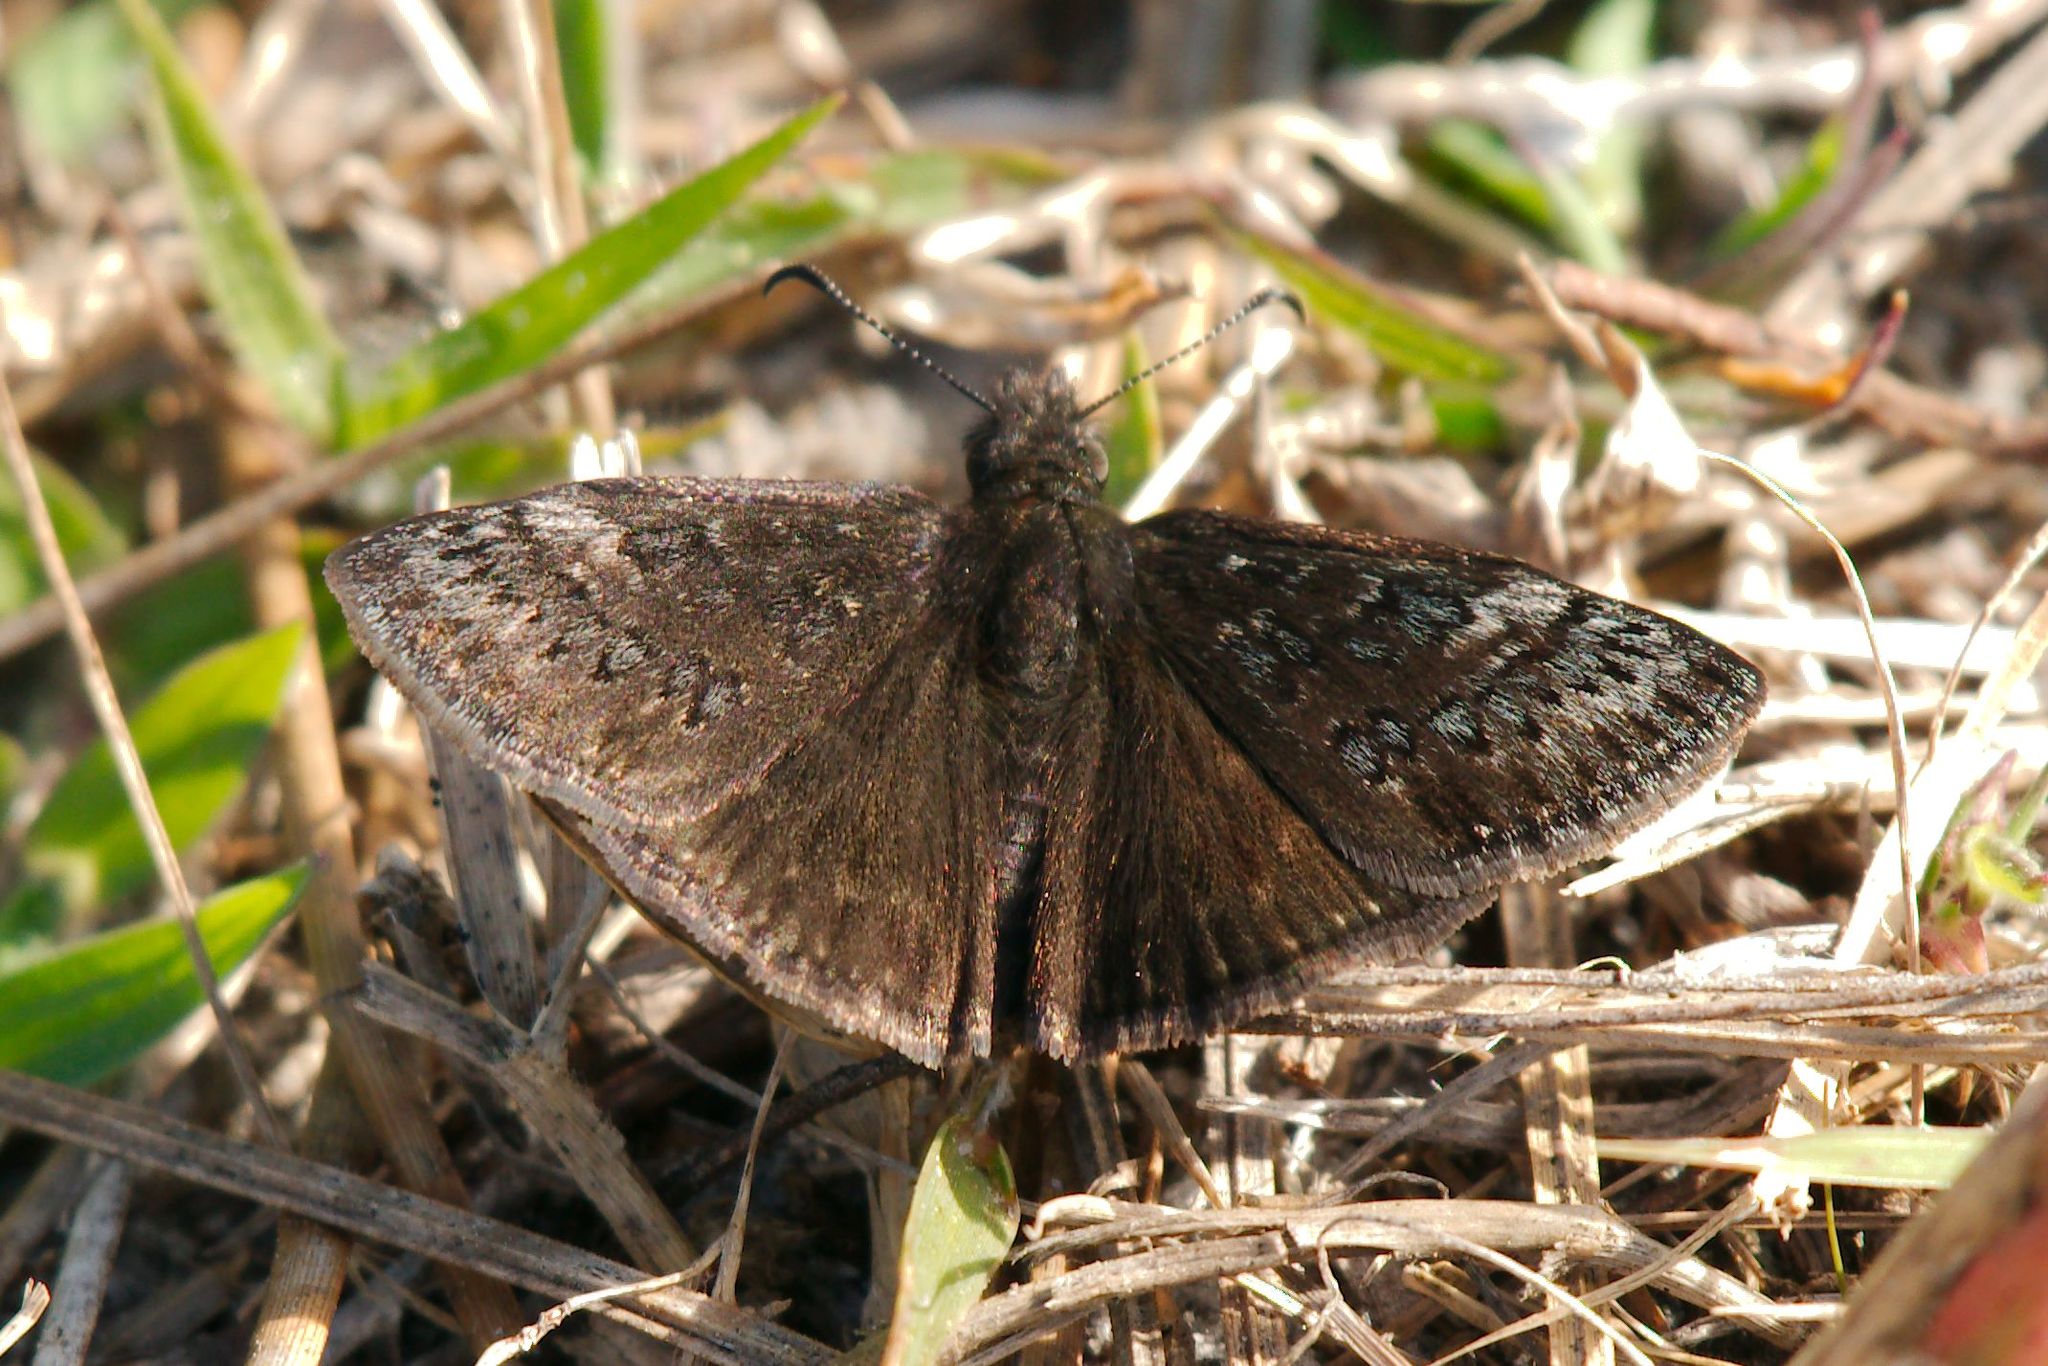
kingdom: Animalia
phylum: Arthropoda
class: Insecta
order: Lepidoptera
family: Hesperiidae
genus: Erynnis
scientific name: Erynnis brizo
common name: Sleepy duskywing
